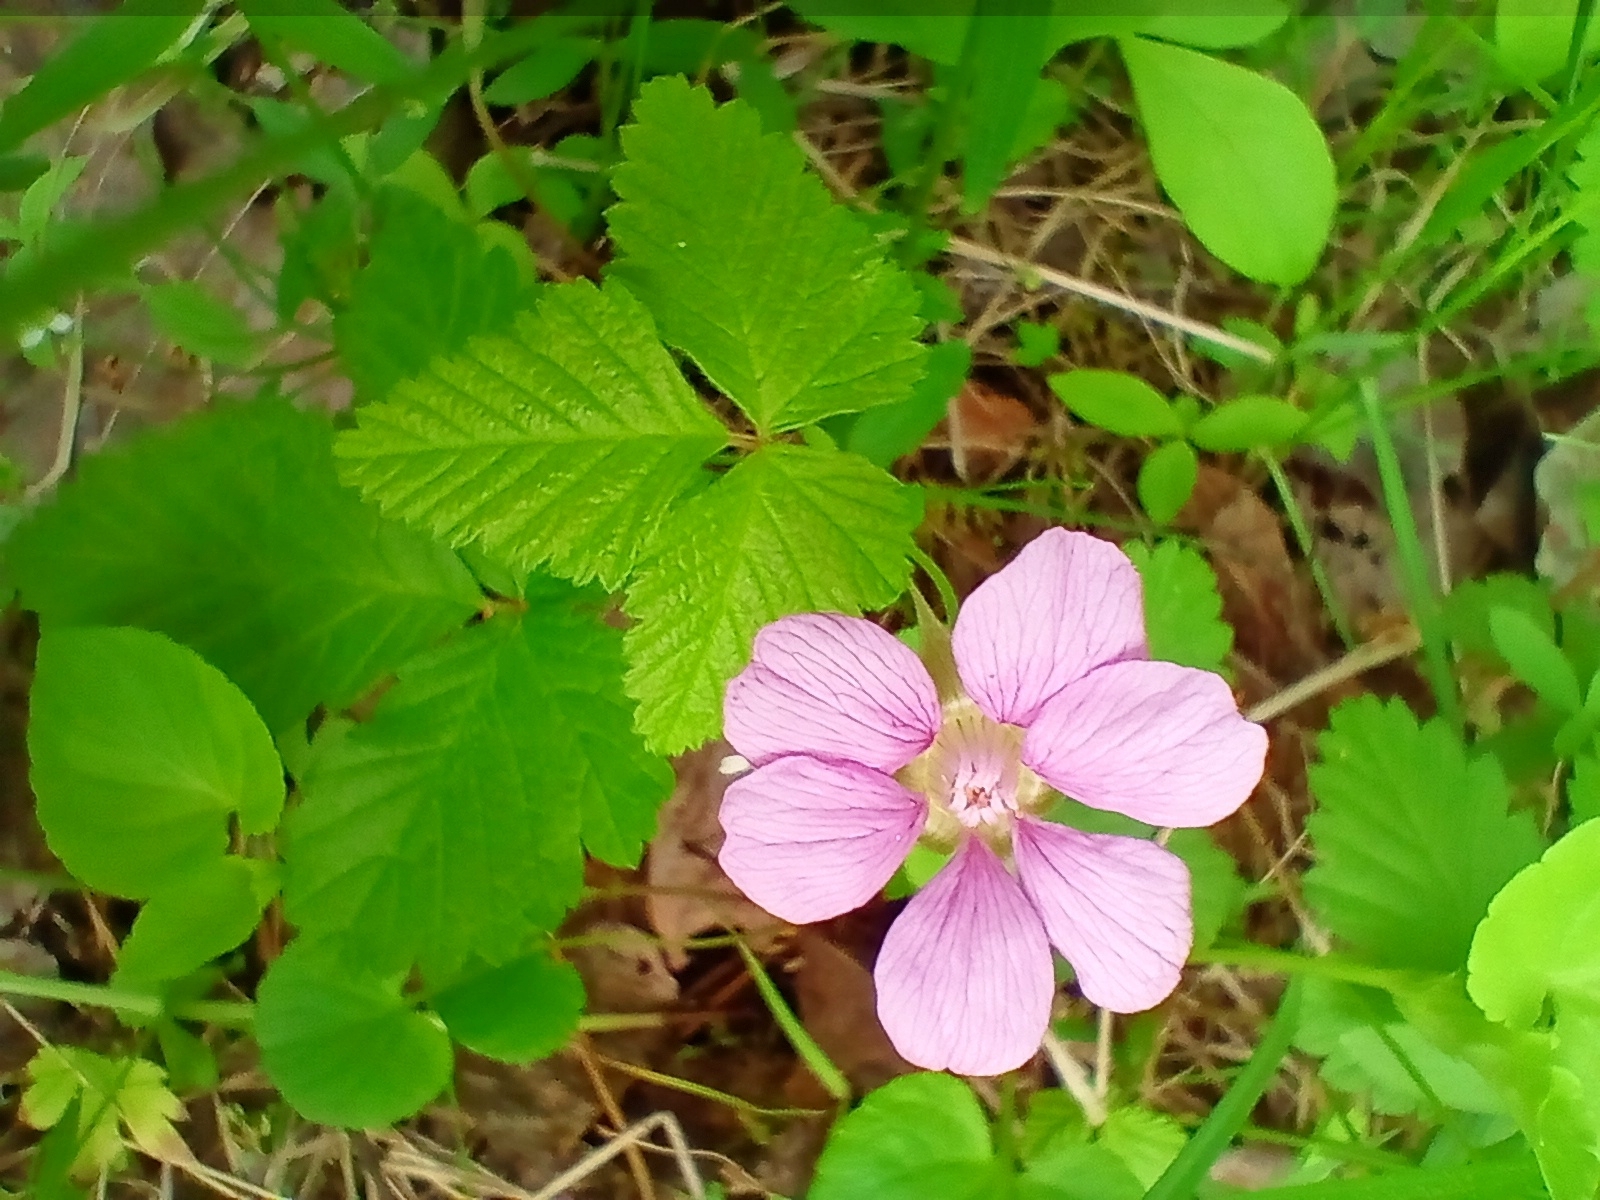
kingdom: Plantae
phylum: Tracheophyta
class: Magnoliopsida
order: Rosales
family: Rosaceae
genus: Rubus
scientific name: Rubus arcticus
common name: Arctic bramble
